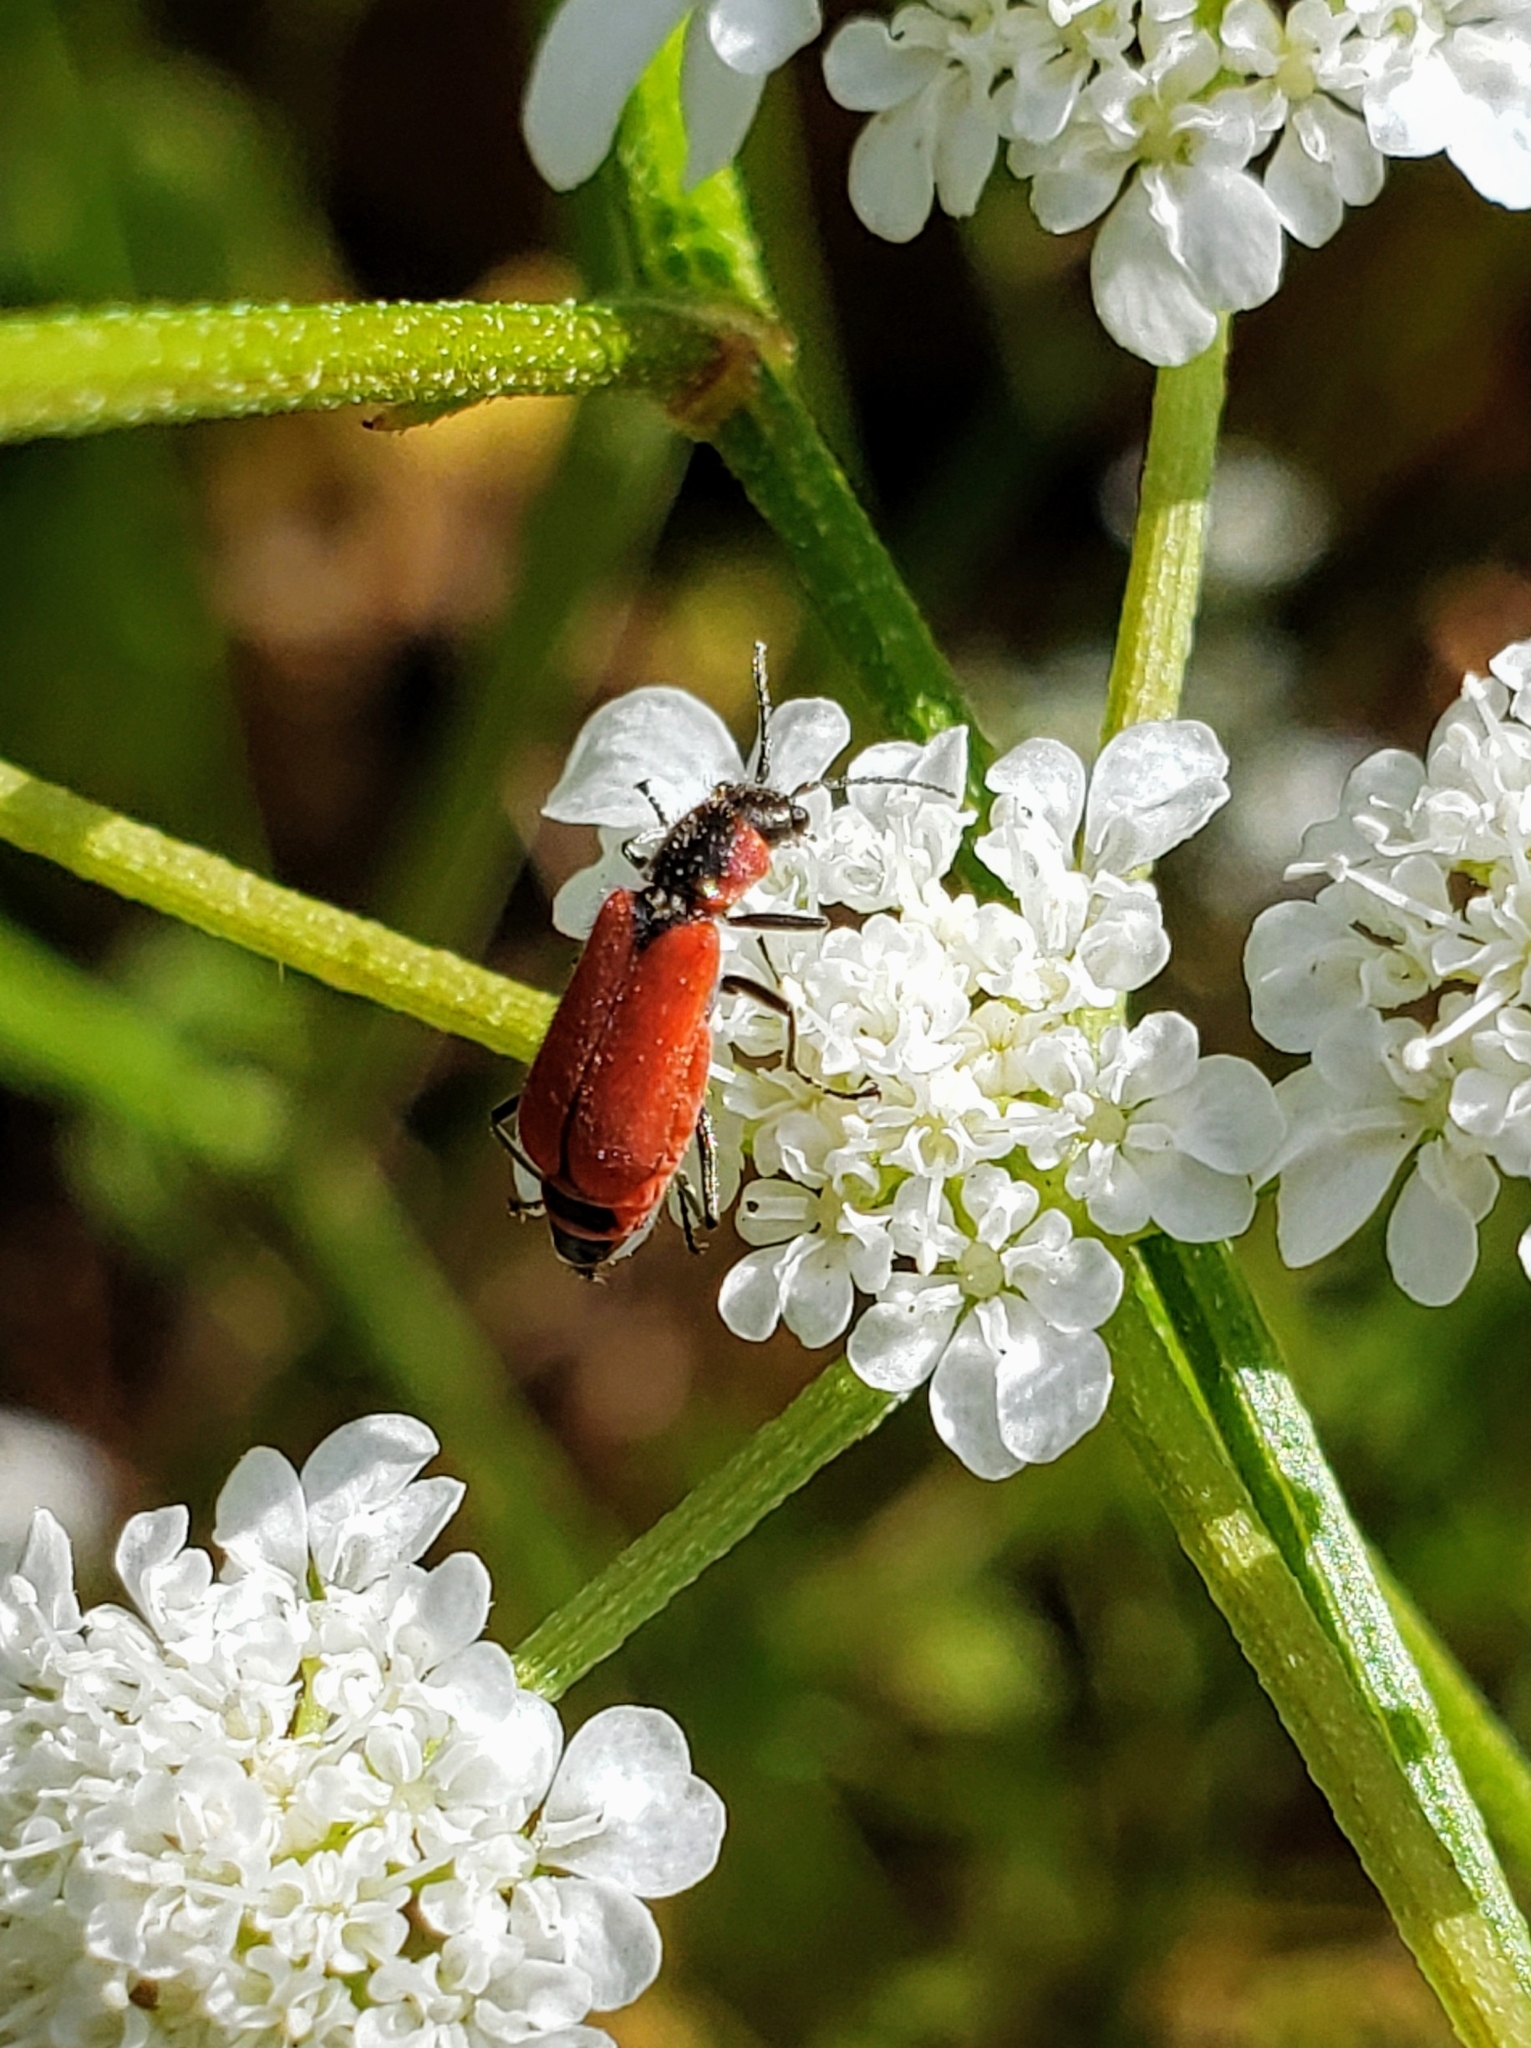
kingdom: Animalia
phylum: Arthropoda
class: Insecta
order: Coleoptera
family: Melyridae
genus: Malachius
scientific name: Malachius coccineus
